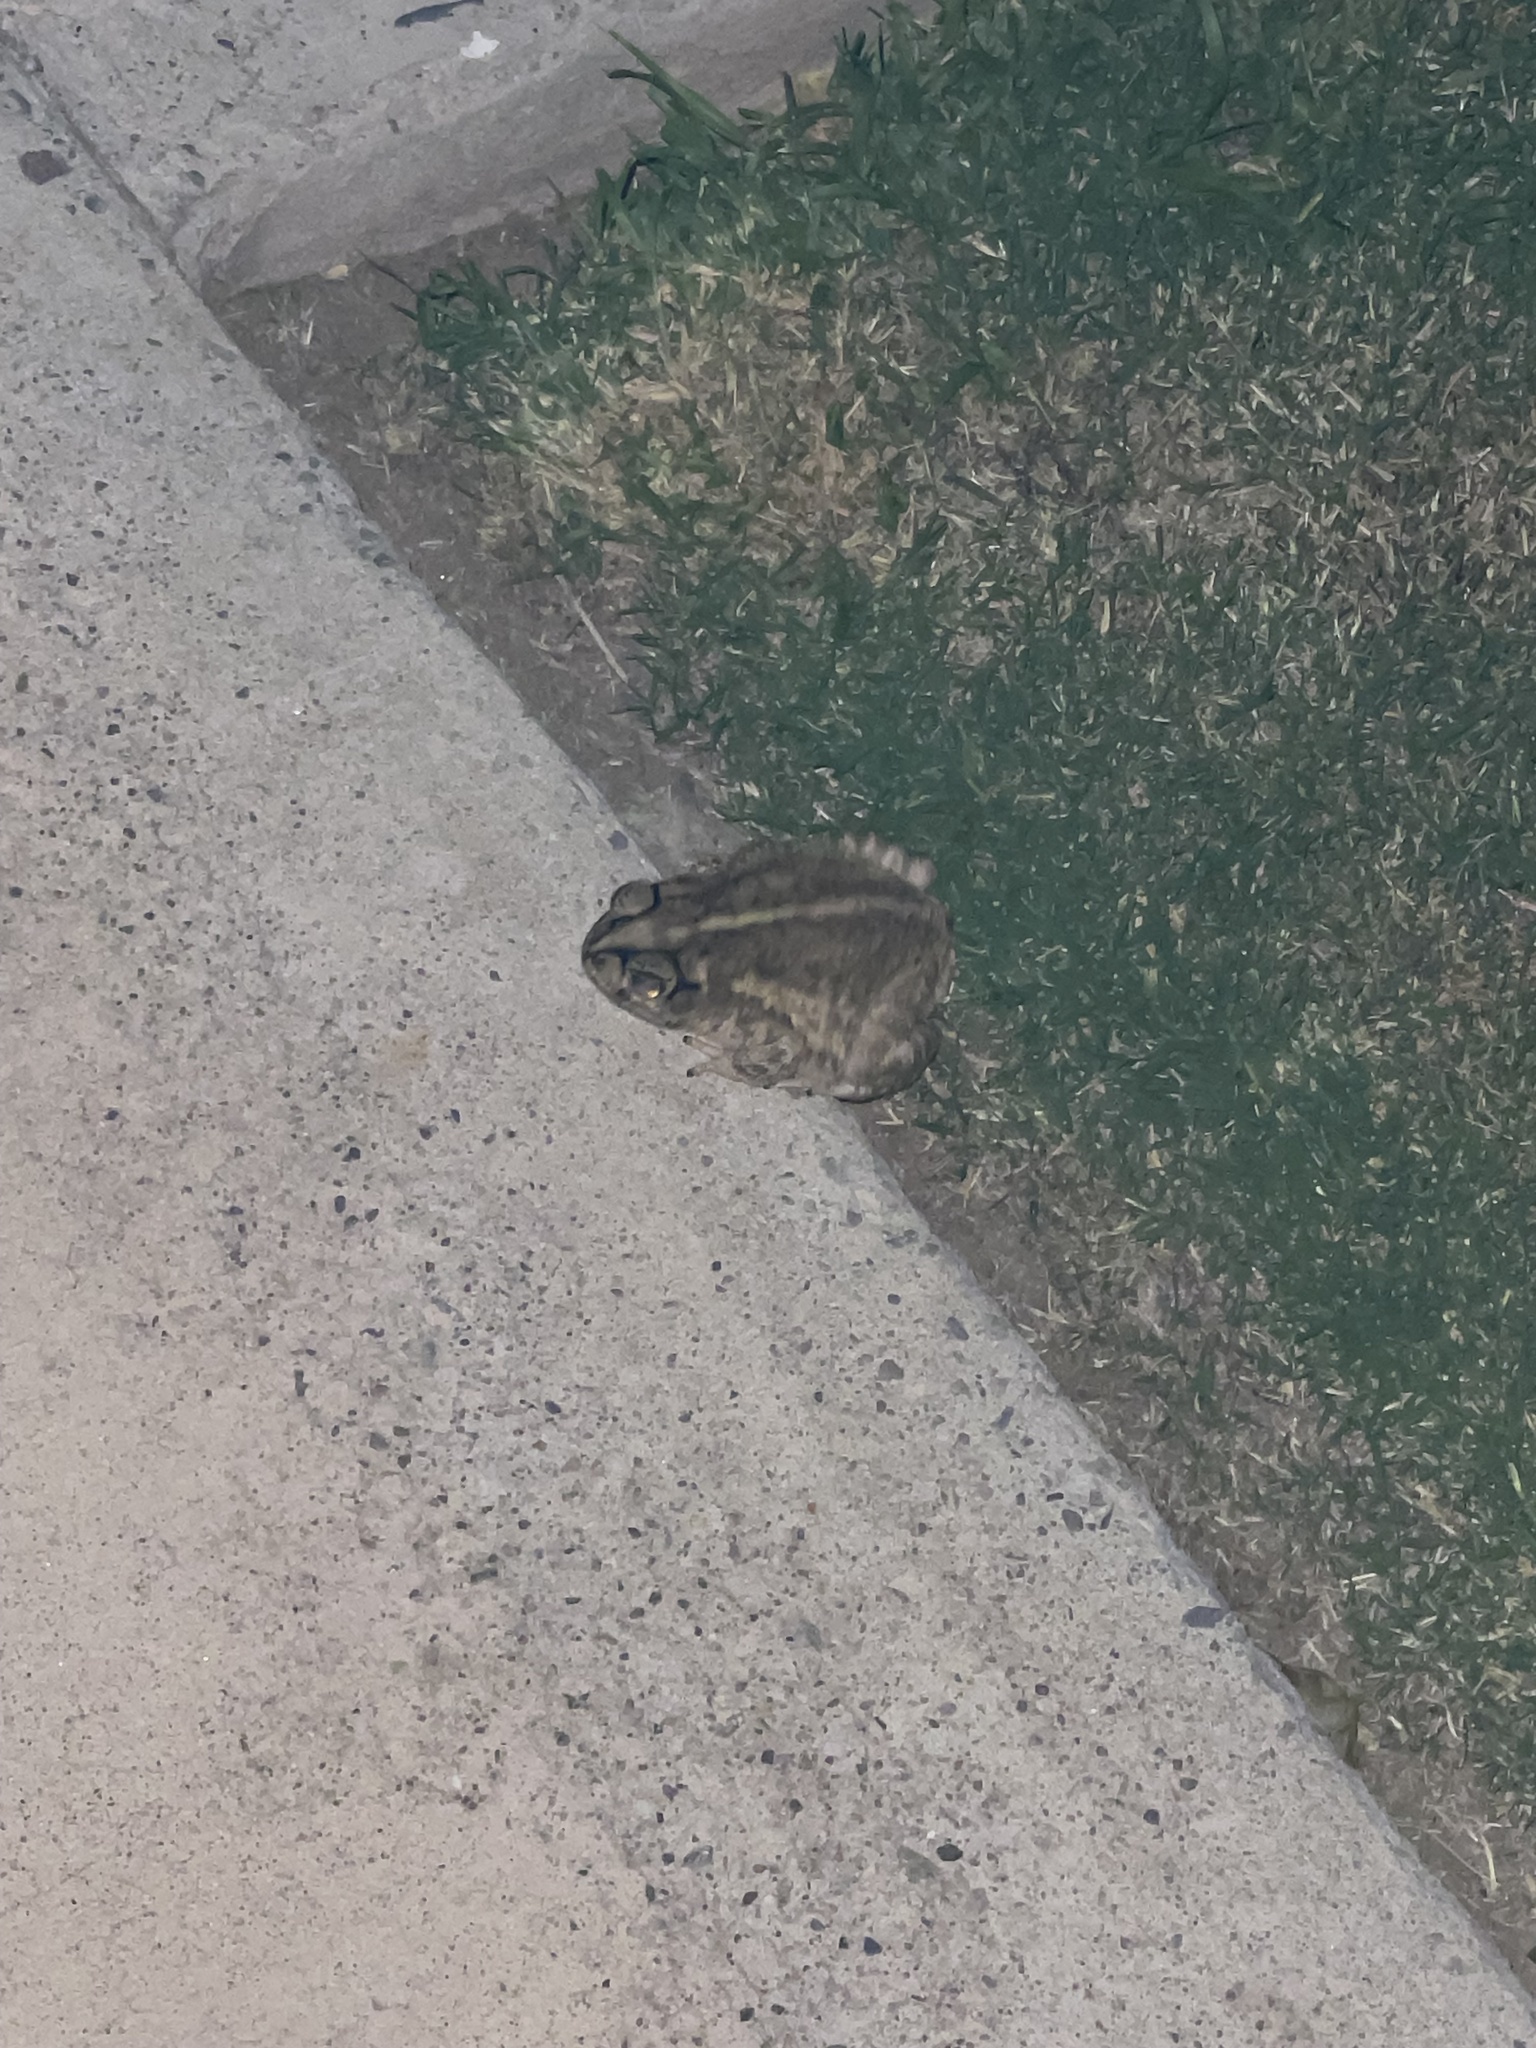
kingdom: Animalia
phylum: Chordata
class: Amphibia
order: Anura
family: Bufonidae
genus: Incilius
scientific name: Incilius mazatlanensis
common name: Sinaloa toad
